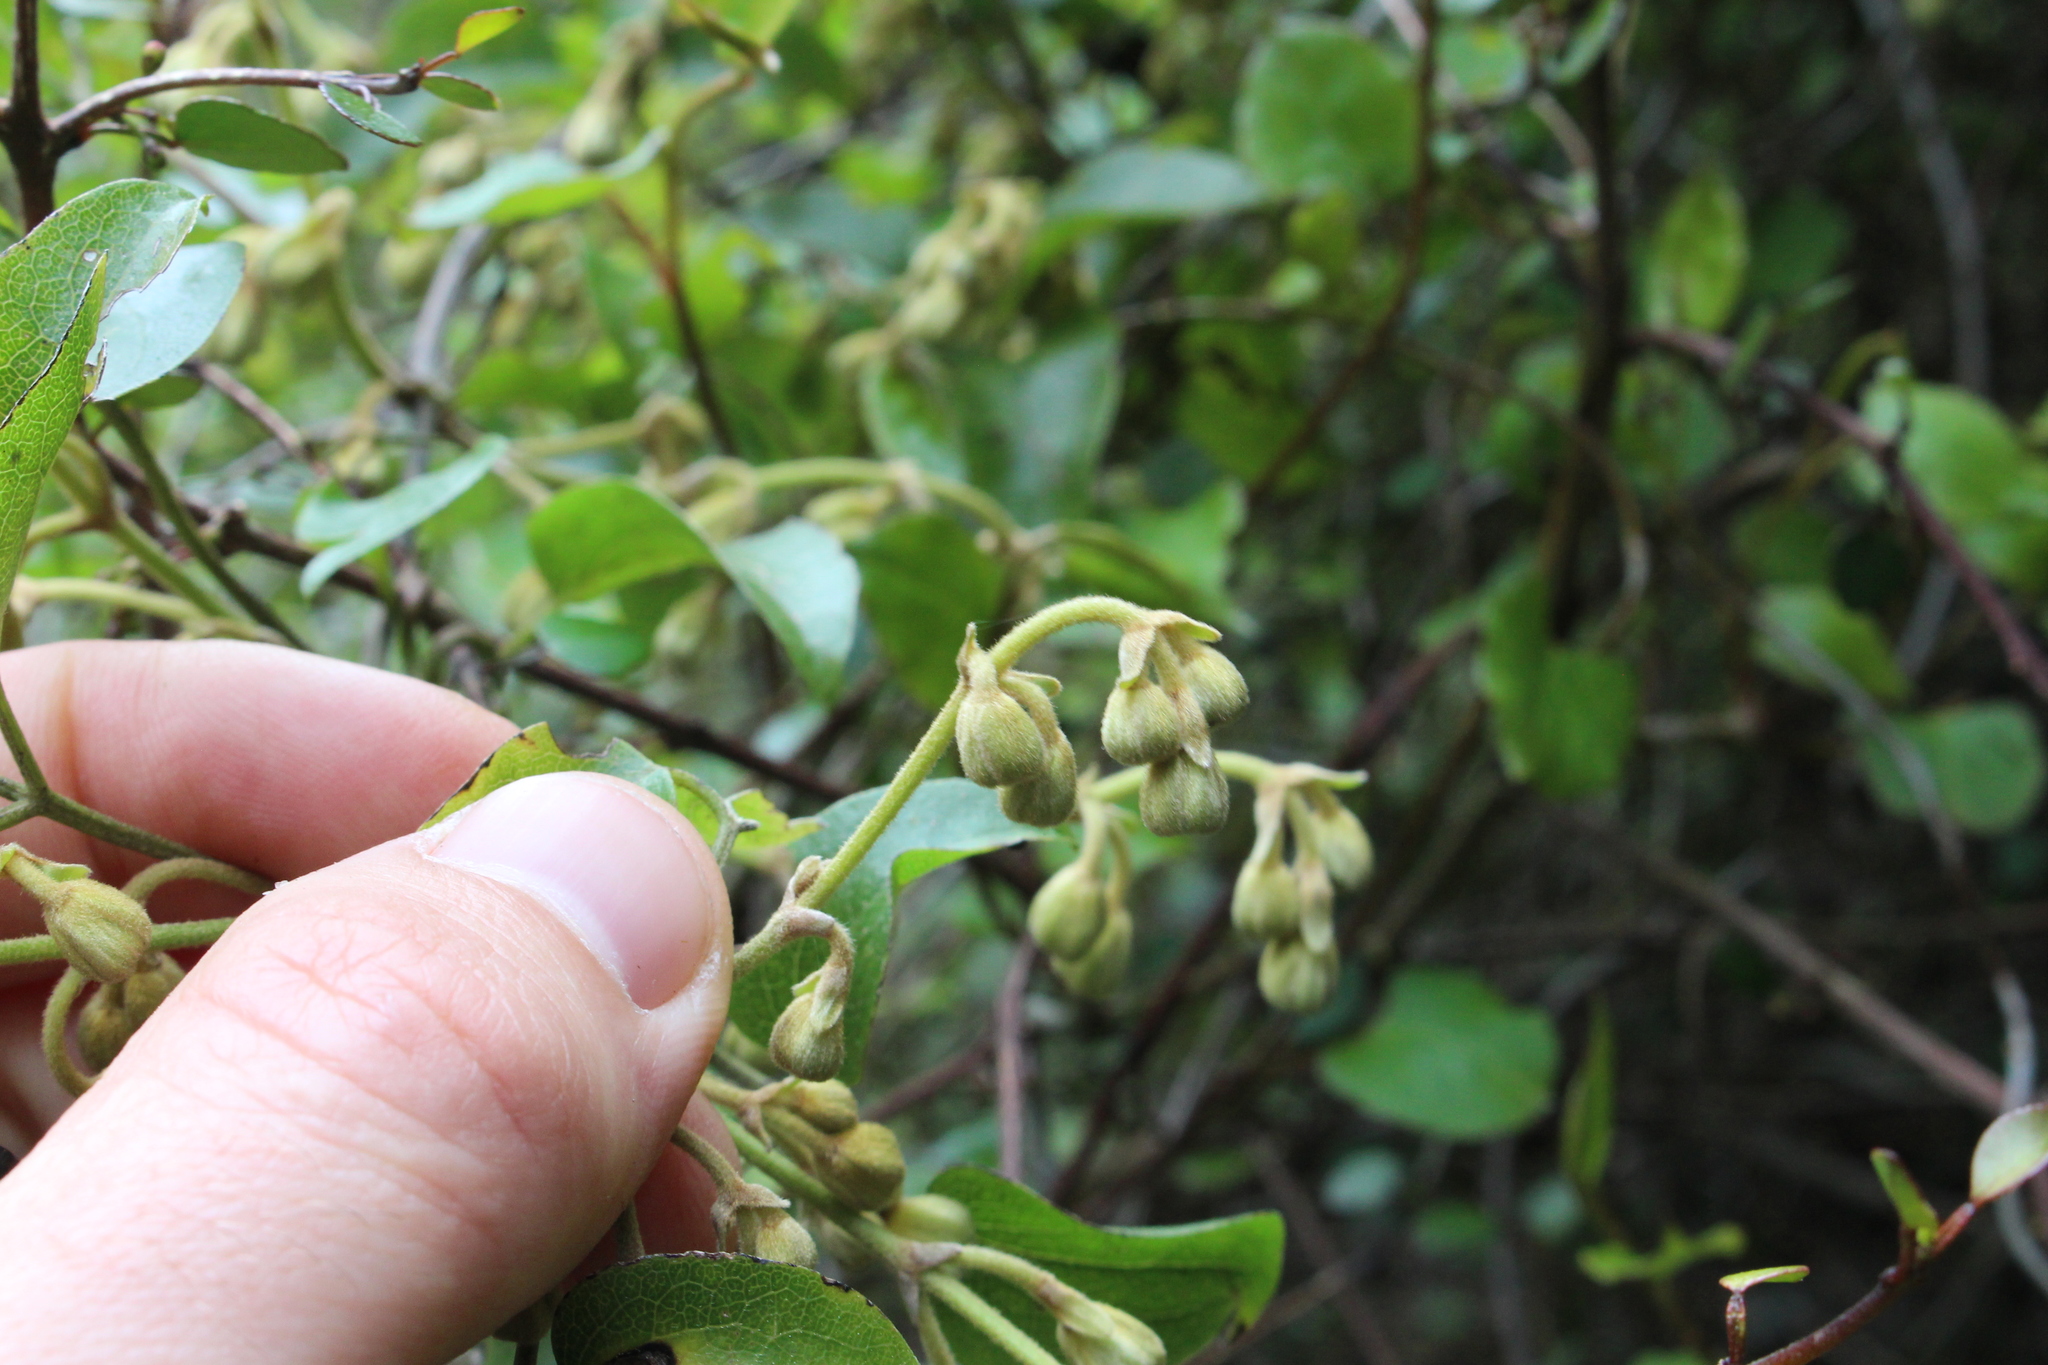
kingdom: Plantae
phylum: Tracheophyta
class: Magnoliopsida
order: Ranunculales
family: Ranunculaceae
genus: Clematis
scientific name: Clematis foetida
